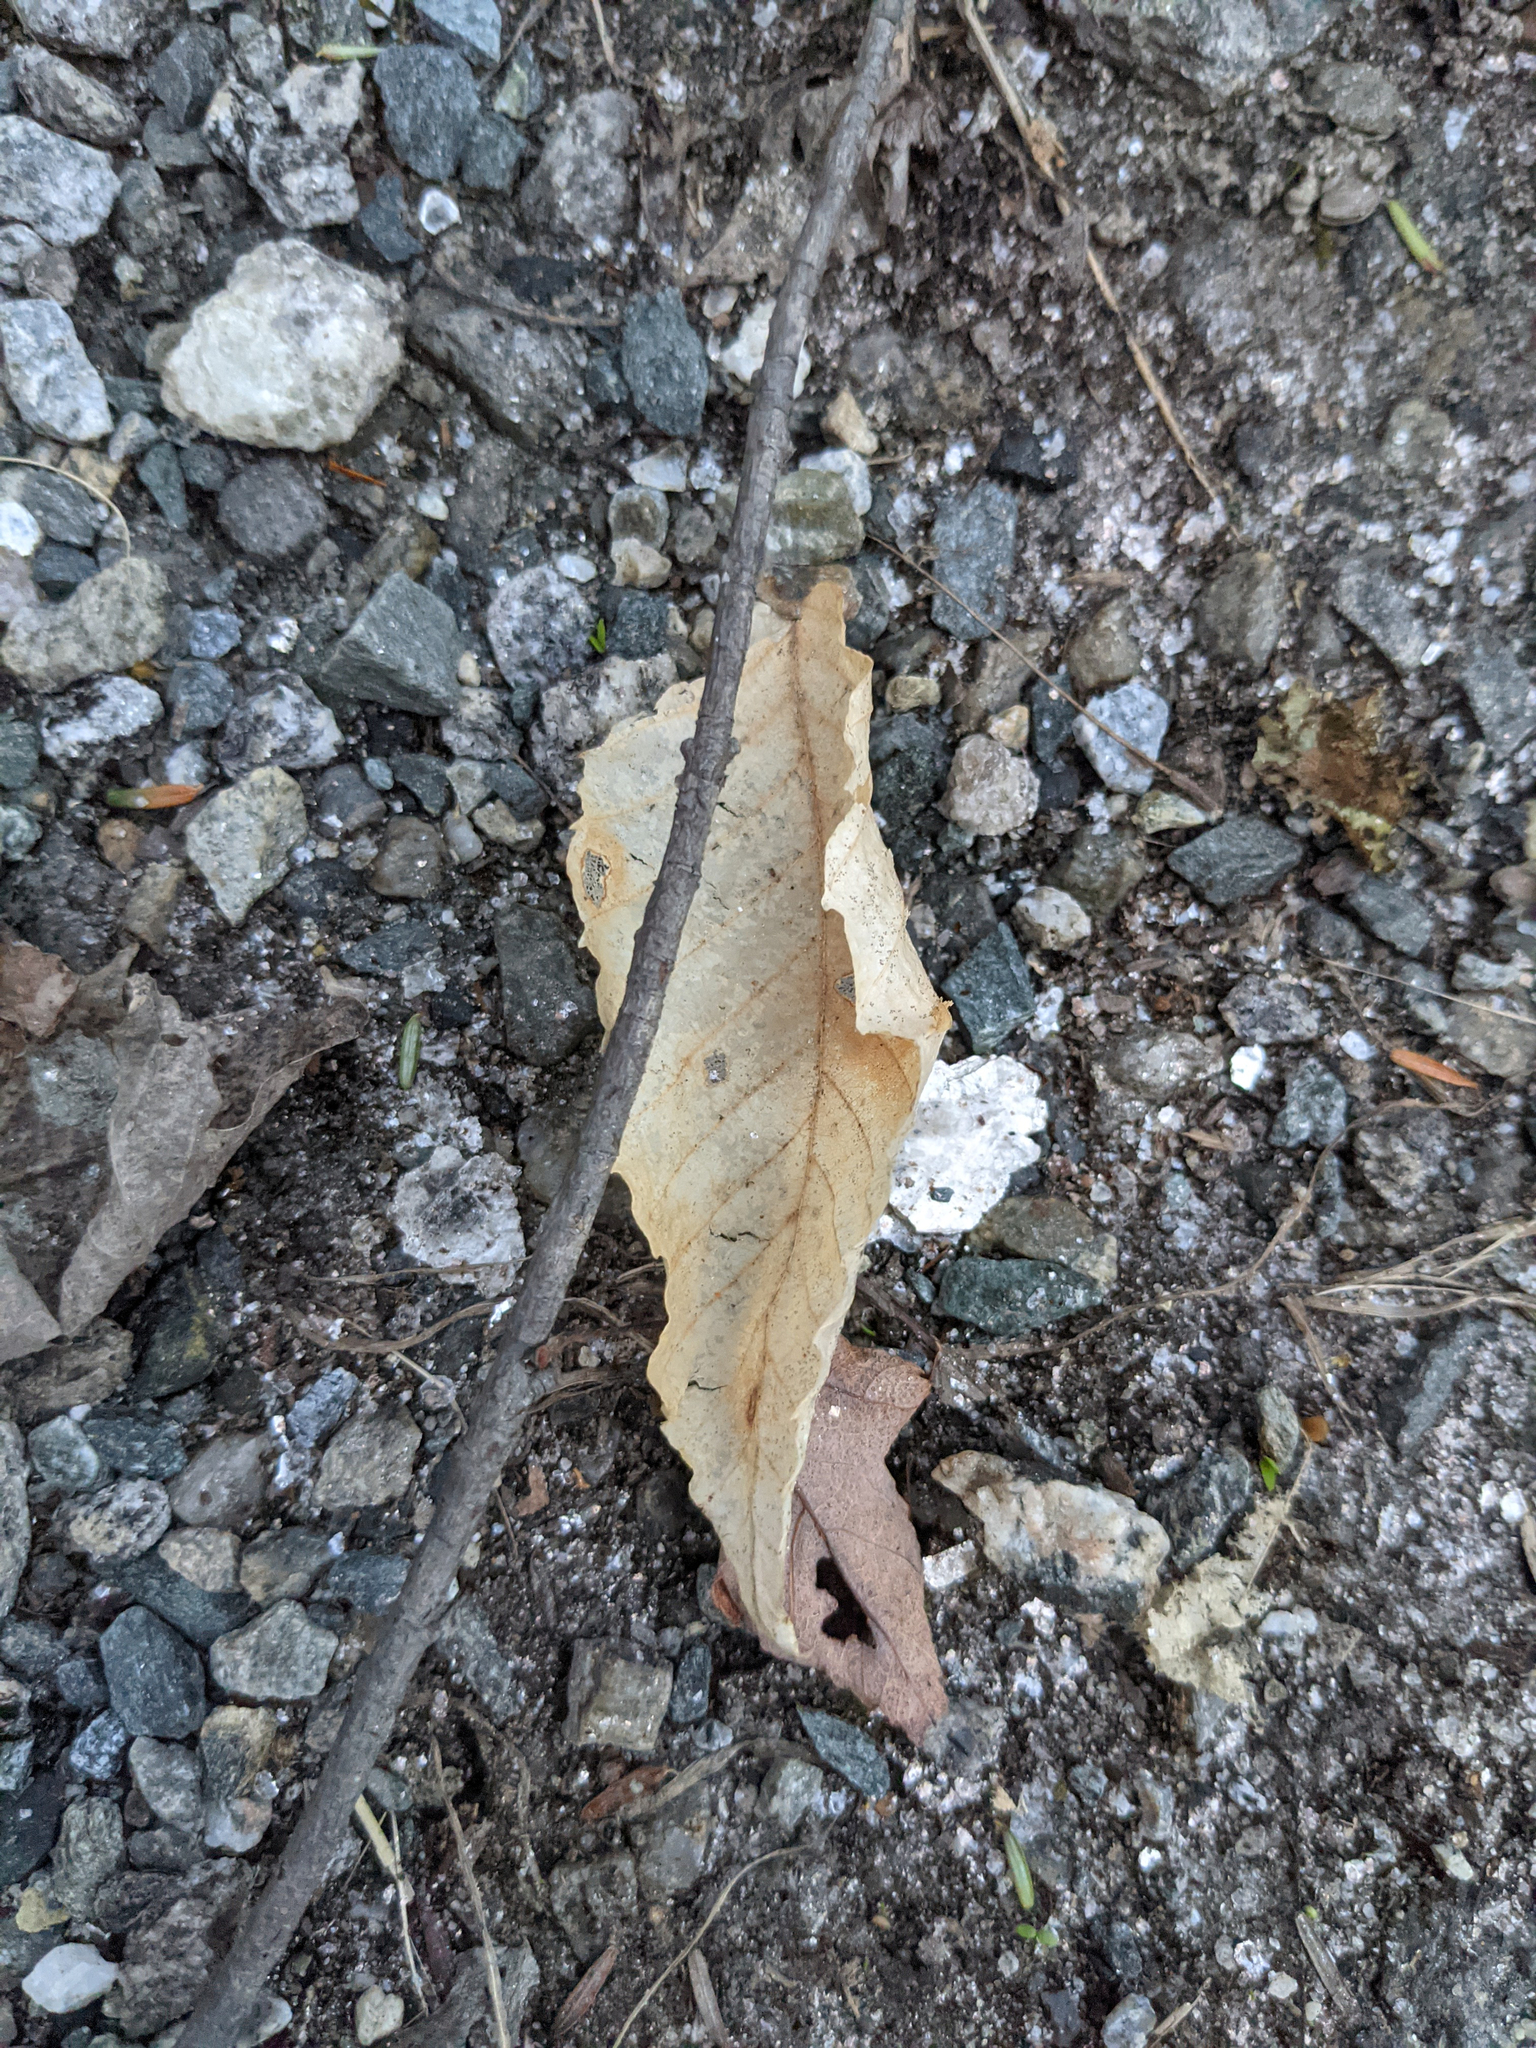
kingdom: Plantae
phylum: Tracheophyta
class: Magnoliopsida
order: Fagales
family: Fagaceae
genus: Fagus
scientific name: Fagus grandifolia
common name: American beech
